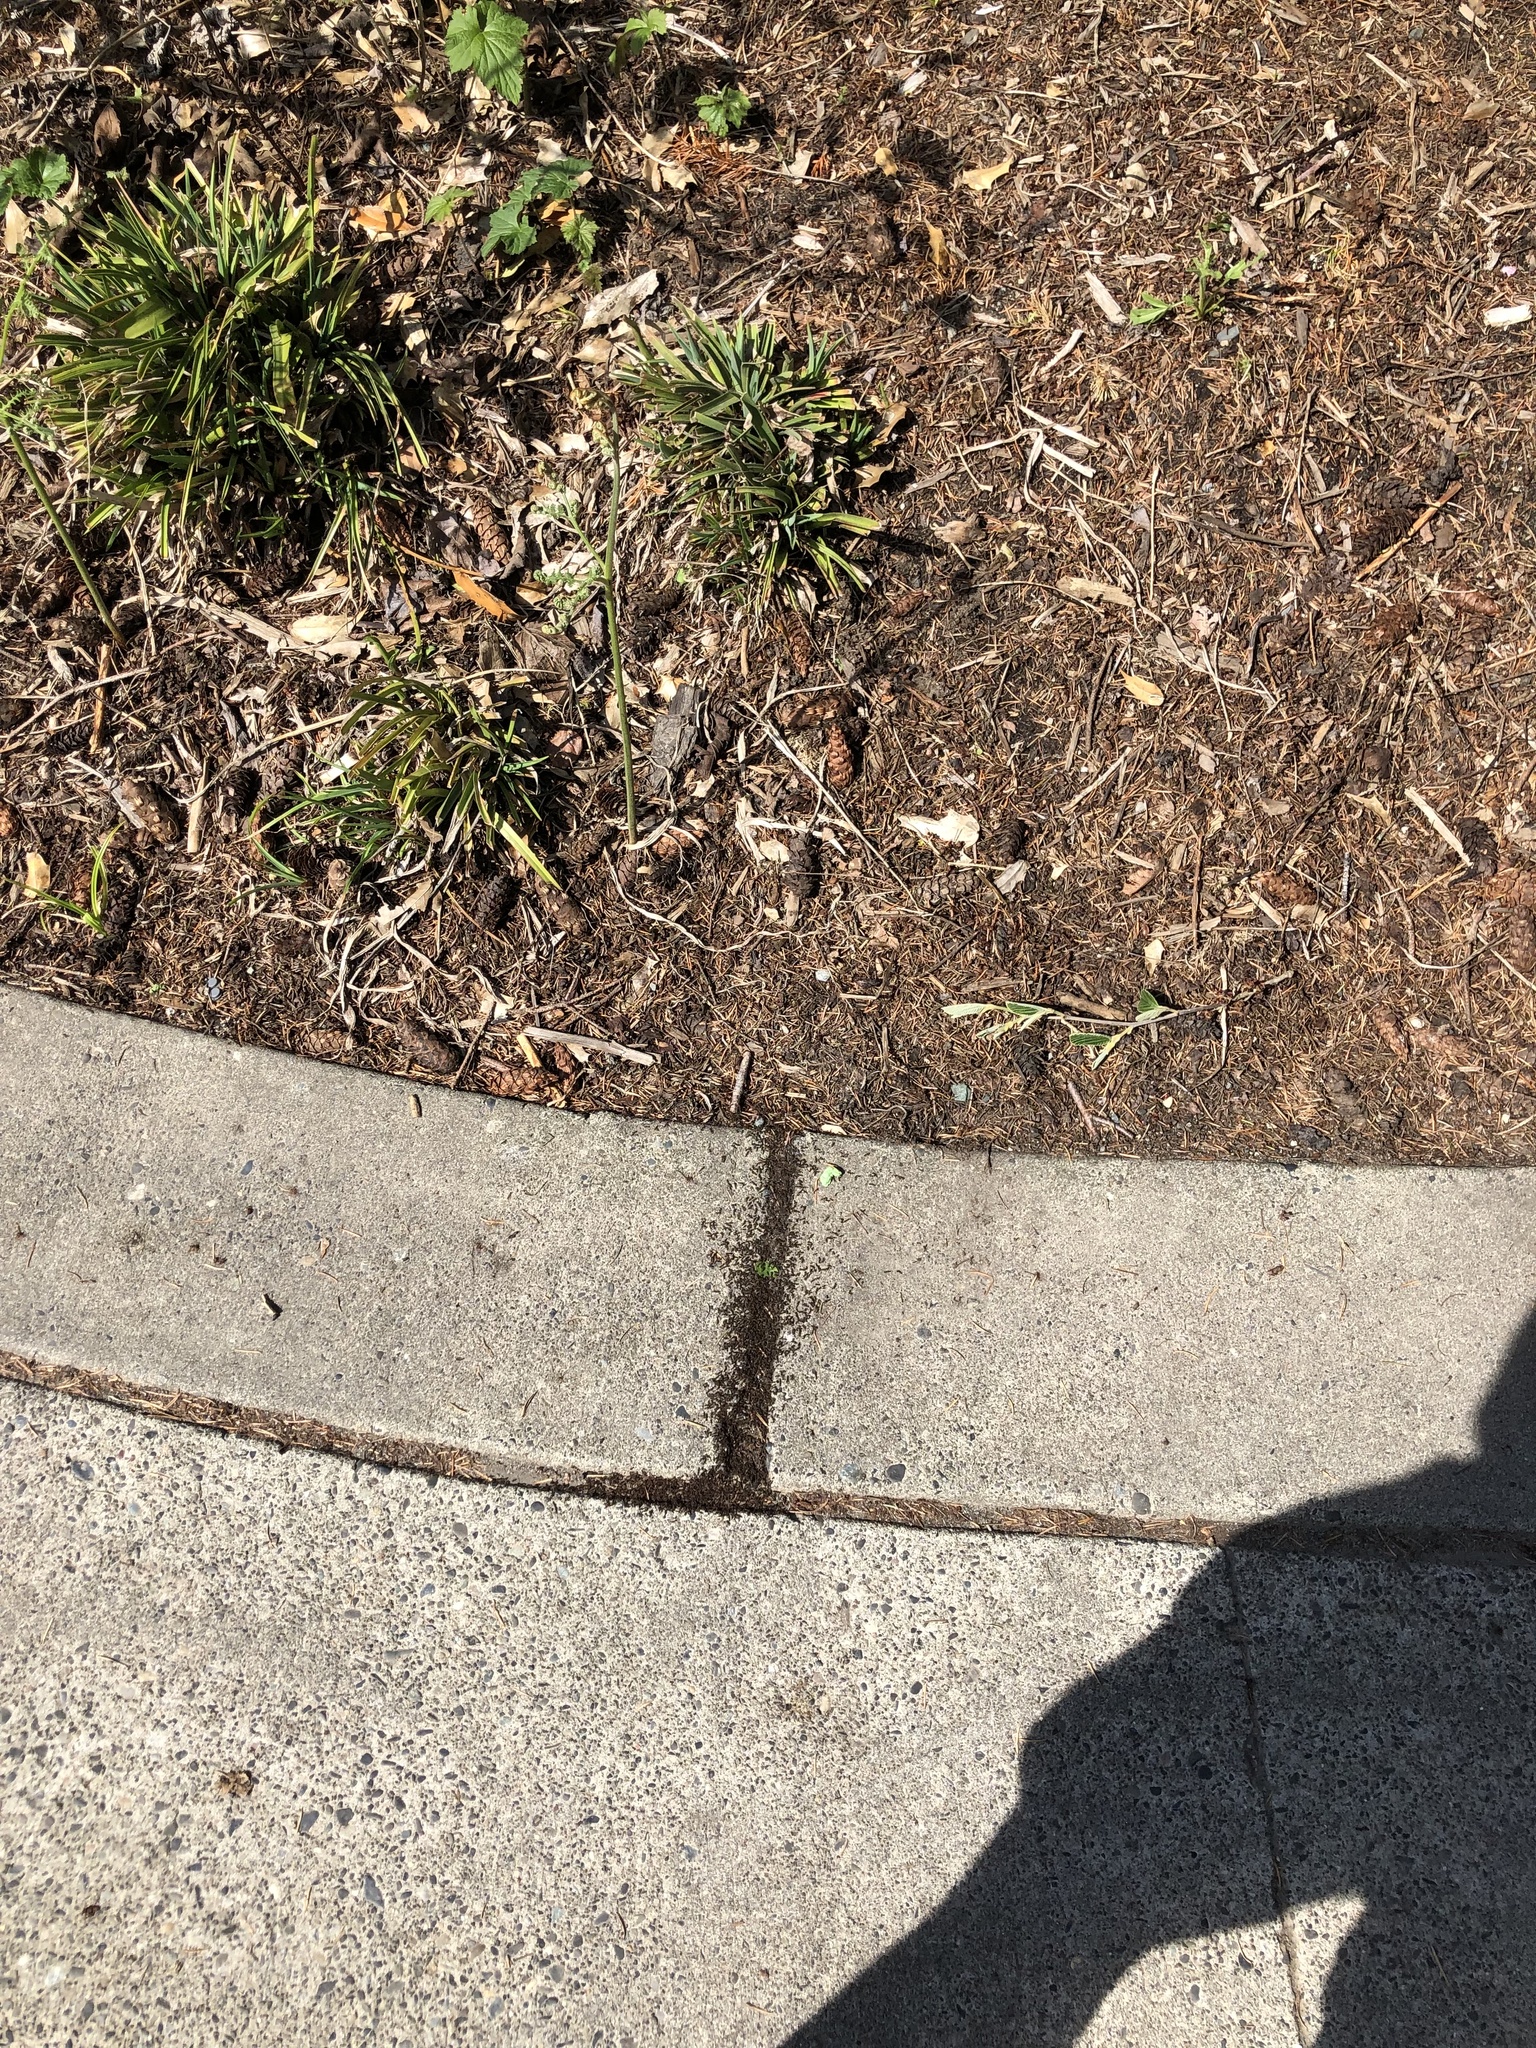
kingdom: Animalia
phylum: Arthropoda
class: Insecta
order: Hymenoptera
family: Formicidae
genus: Tetramorium
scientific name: Tetramorium immigrans
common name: Pavement ant
